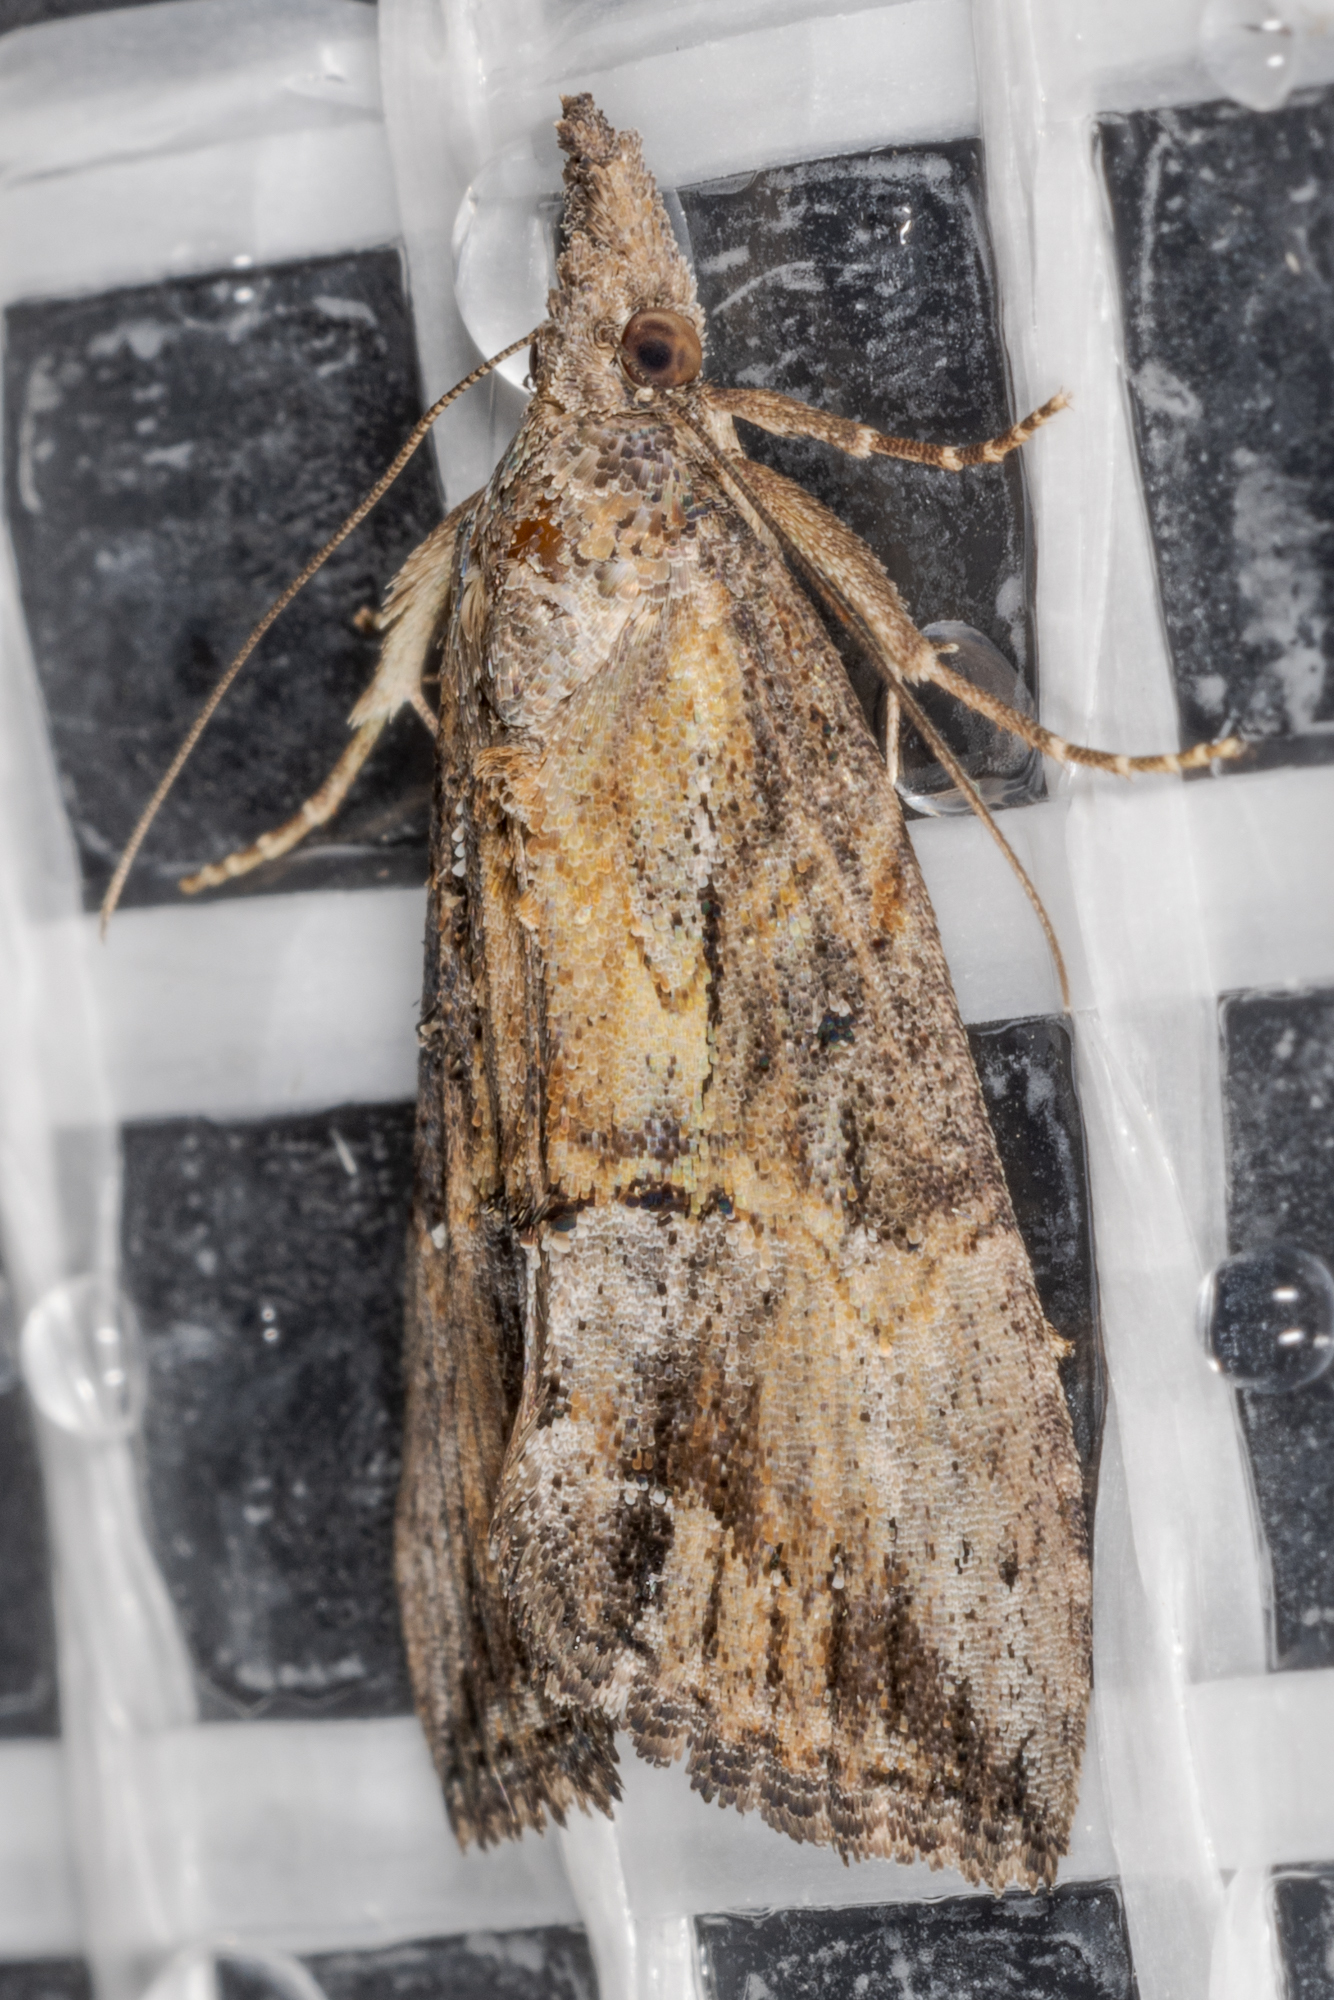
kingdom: Animalia
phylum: Arthropoda
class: Insecta
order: Lepidoptera
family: Erebidae
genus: Hypena
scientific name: Hypena scabra
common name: Green cloverworm
